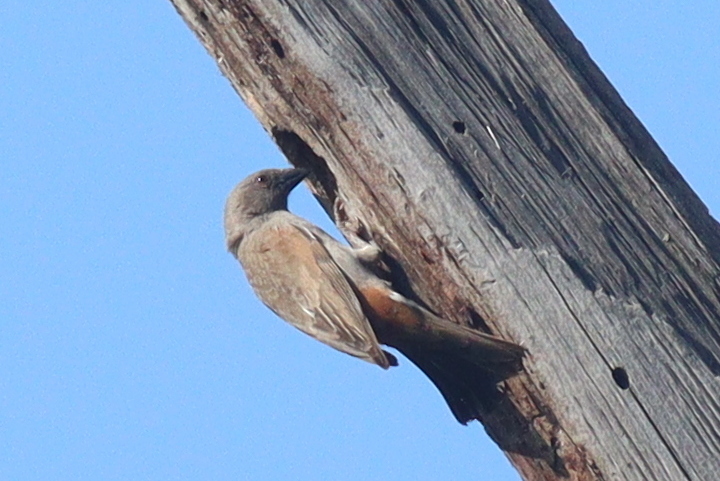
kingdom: Animalia
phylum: Chordata
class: Aves
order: Passeriformes
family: Passeridae
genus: Passer
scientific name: Passer gongonensis
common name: Parrot-billed sparrow
